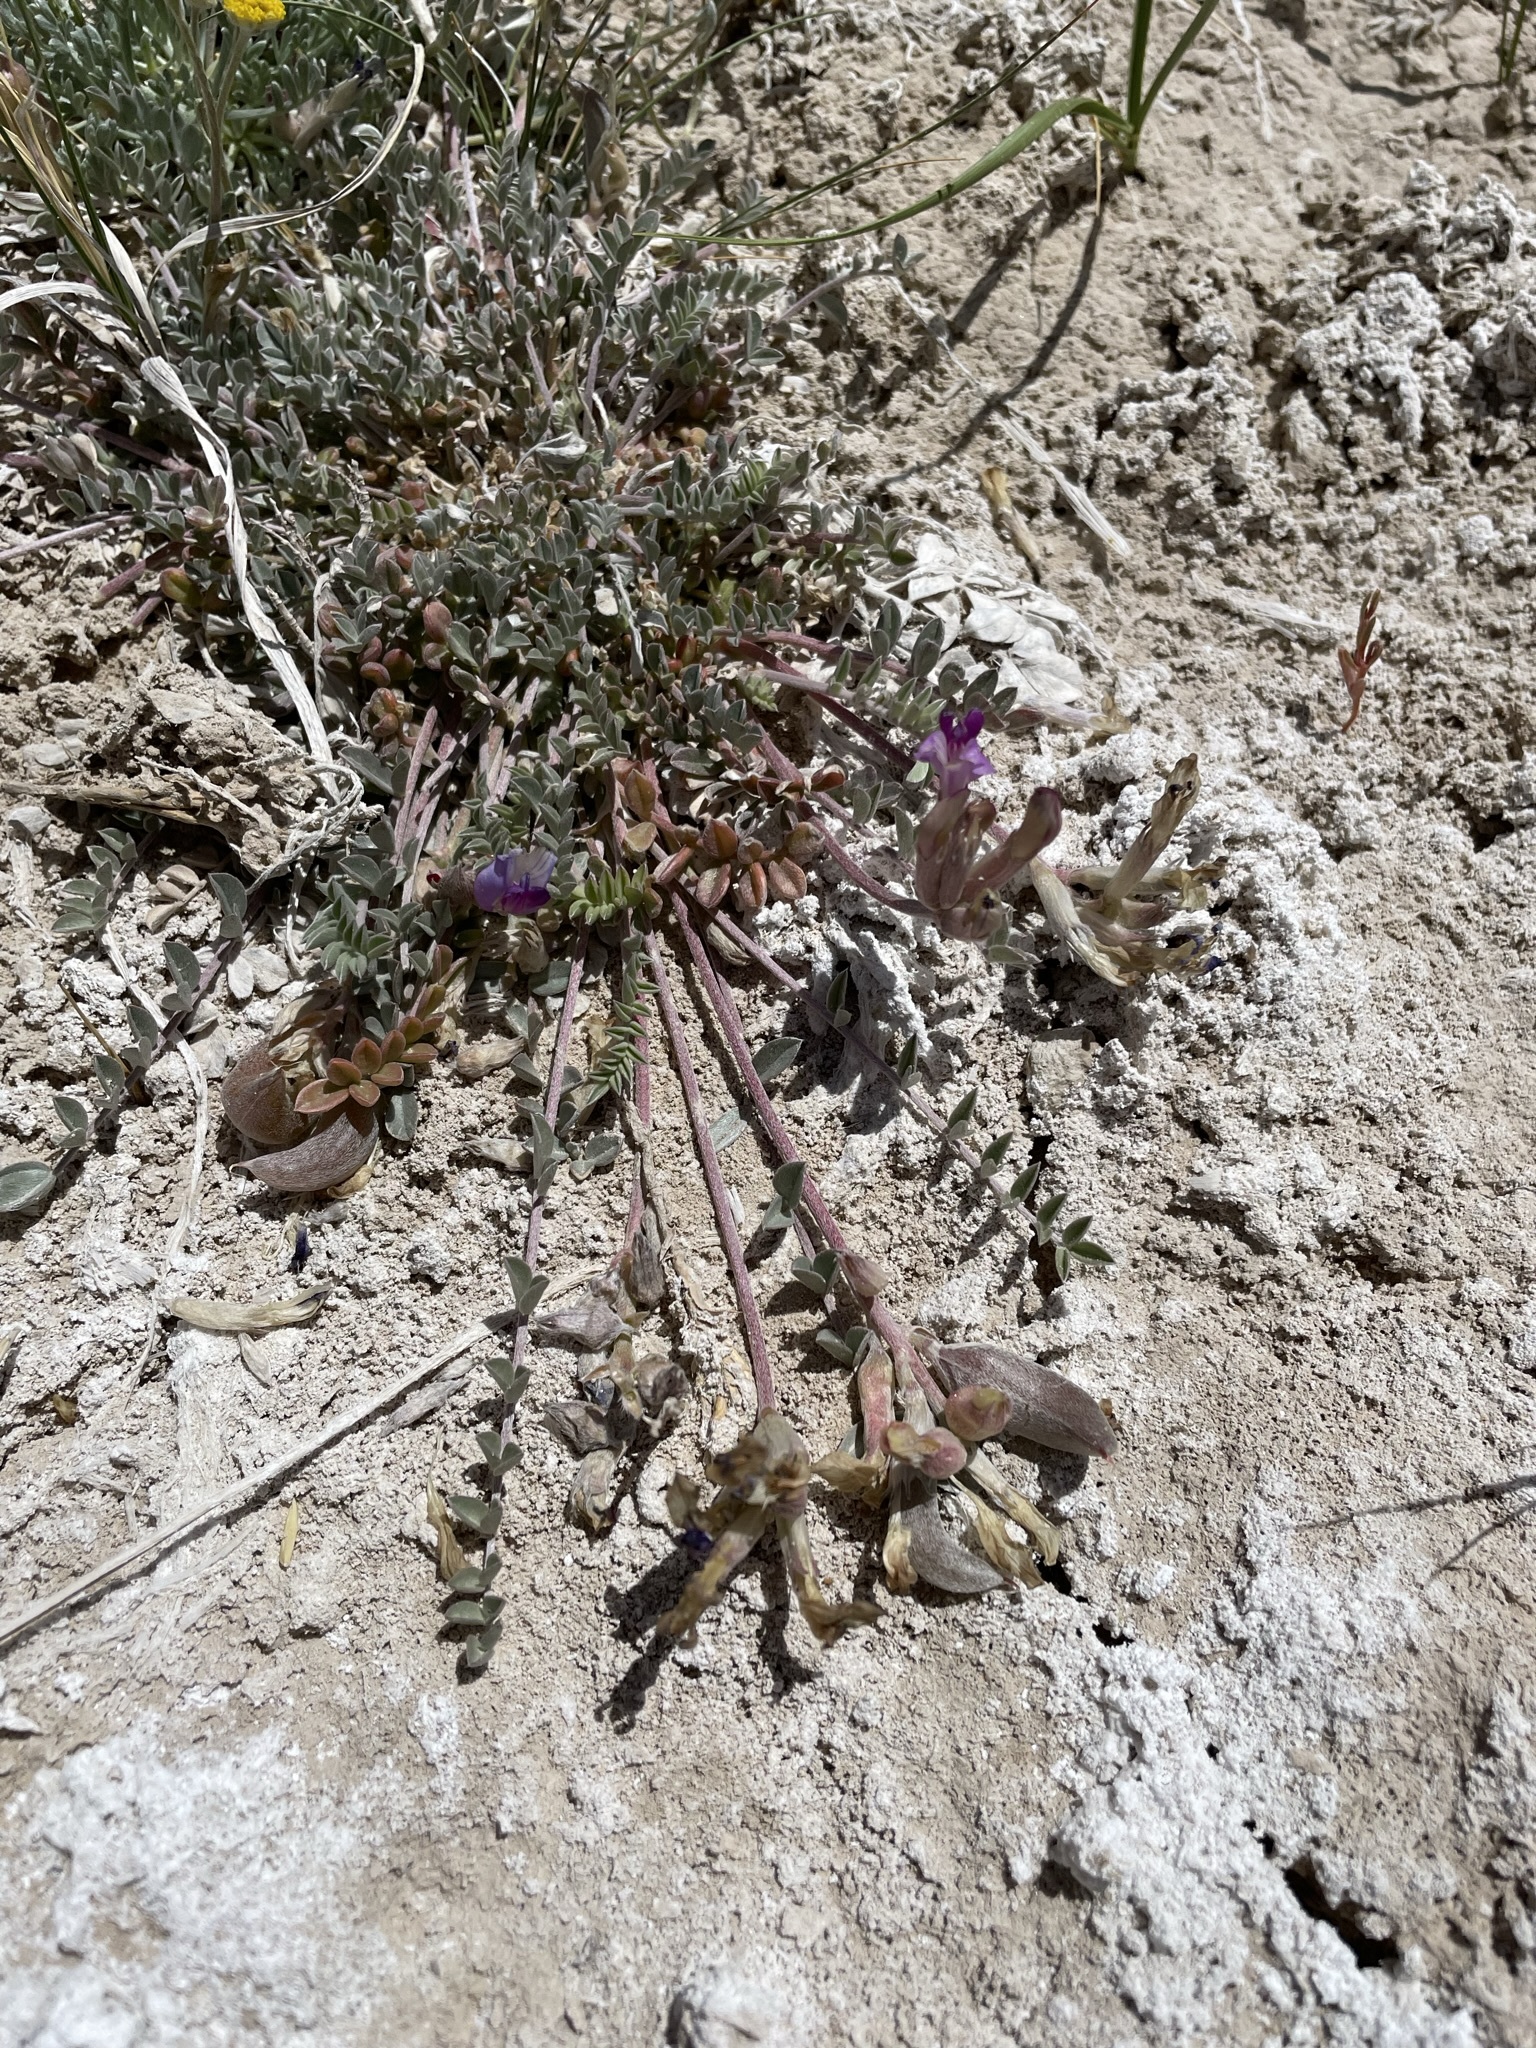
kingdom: Plantae
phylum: Tracheophyta
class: Magnoliopsida
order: Fabales
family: Fabaceae
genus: Astragalus
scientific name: Astragalus argophyllus
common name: Silverleaf milk-vetch
